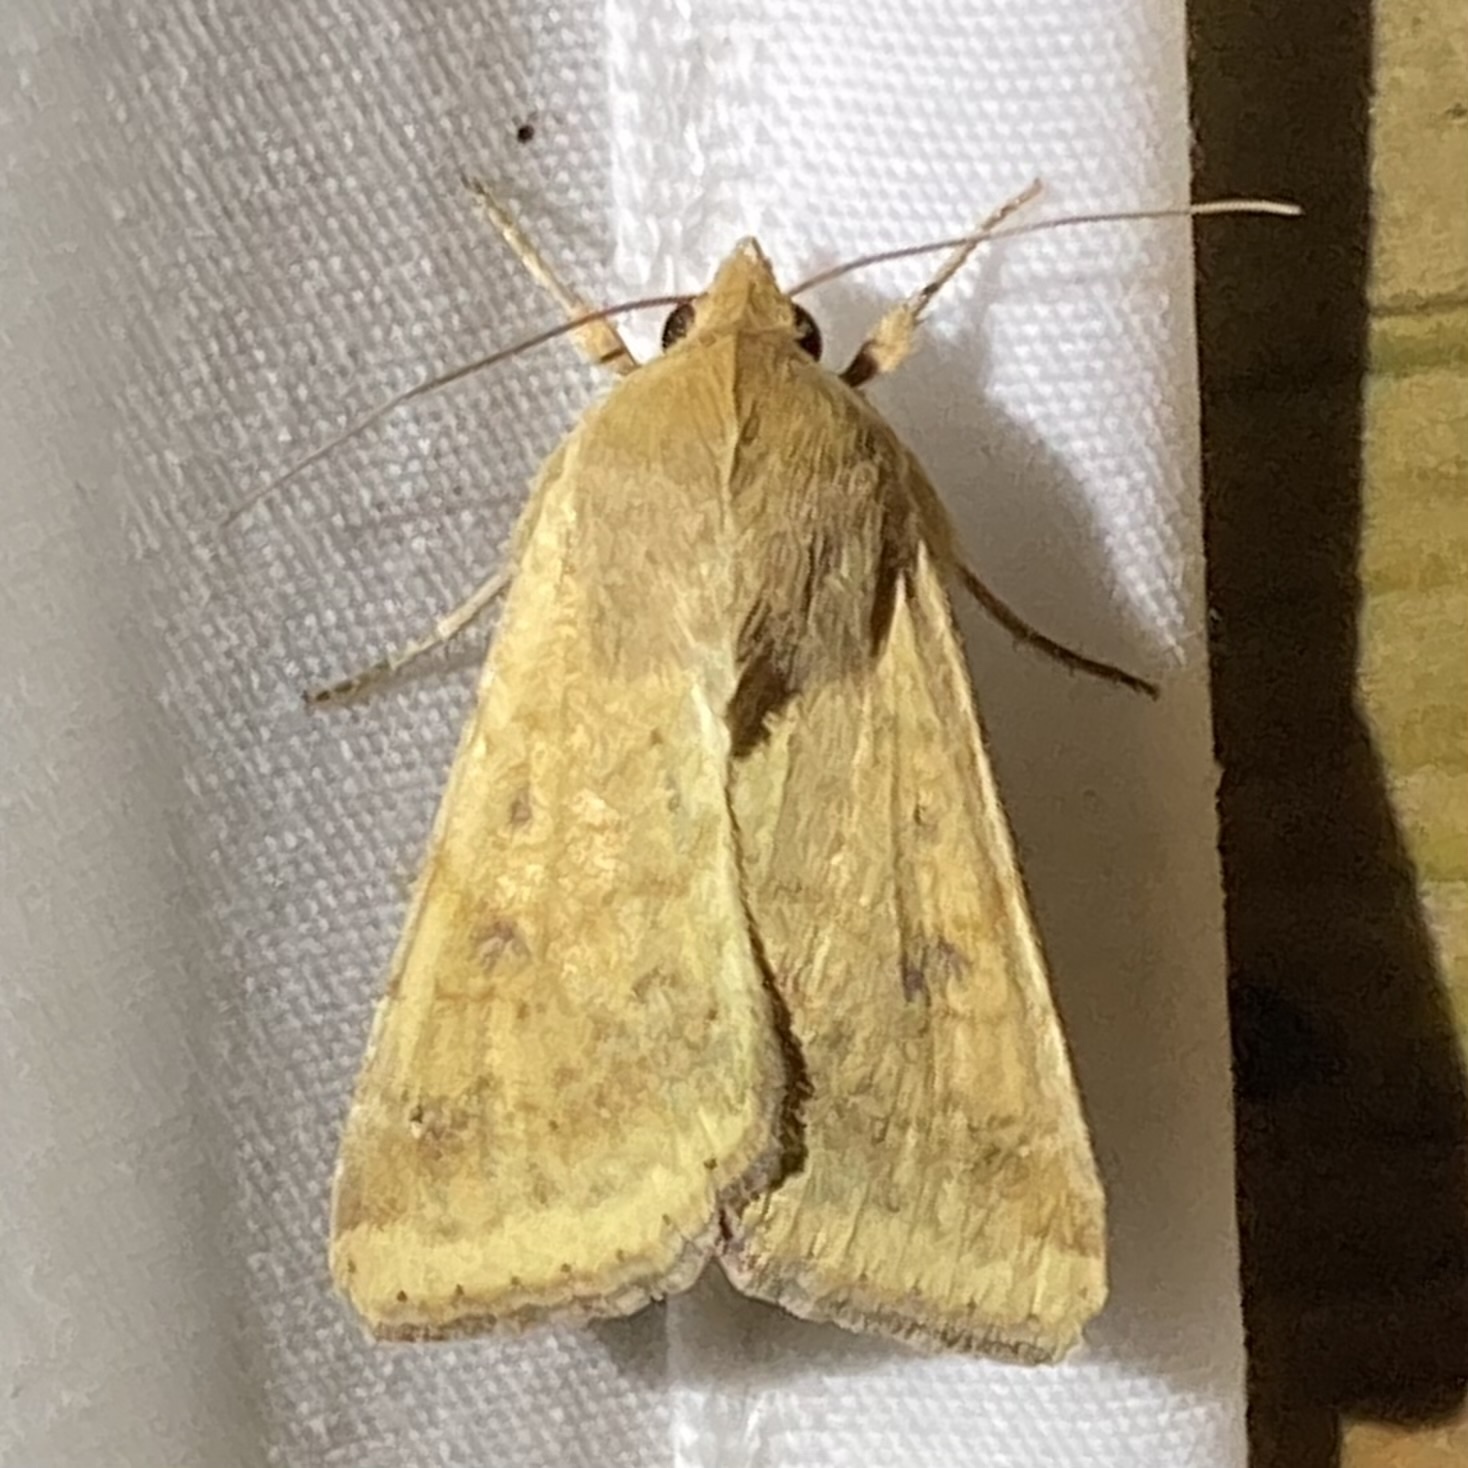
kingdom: Animalia
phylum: Arthropoda
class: Insecta
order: Lepidoptera
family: Noctuidae
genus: Helicoverpa
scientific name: Helicoverpa zea
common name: Bollworm
